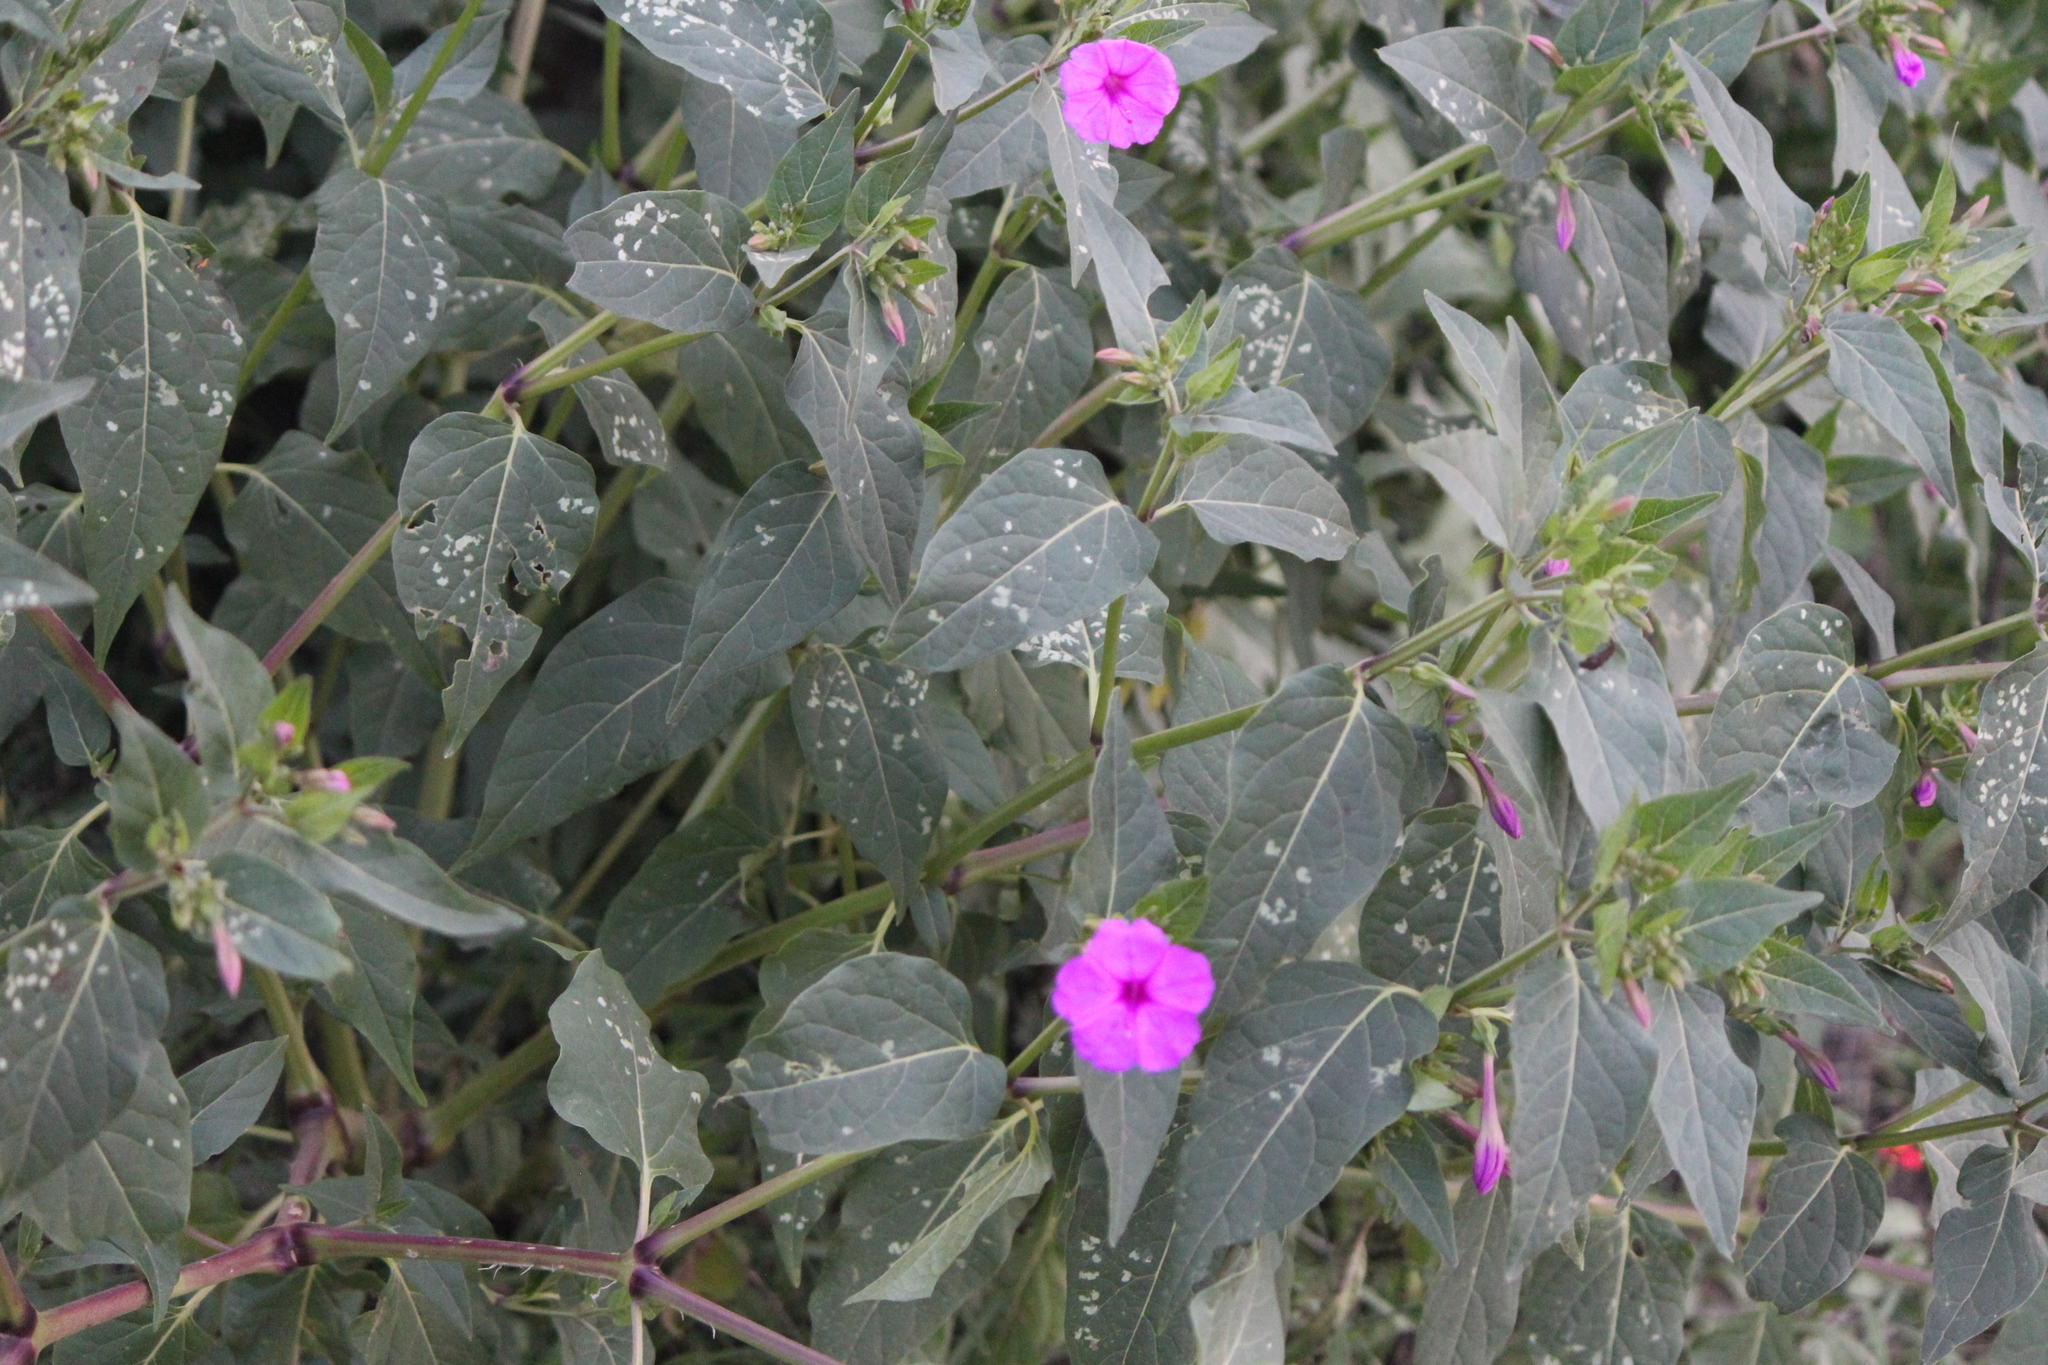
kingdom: Plantae
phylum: Tracheophyta
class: Magnoliopsida
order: Caryophyllales
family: Nyctaginaceae
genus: Mirabilis
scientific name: Mirabilis jalapa
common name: Marvel-of-peru
